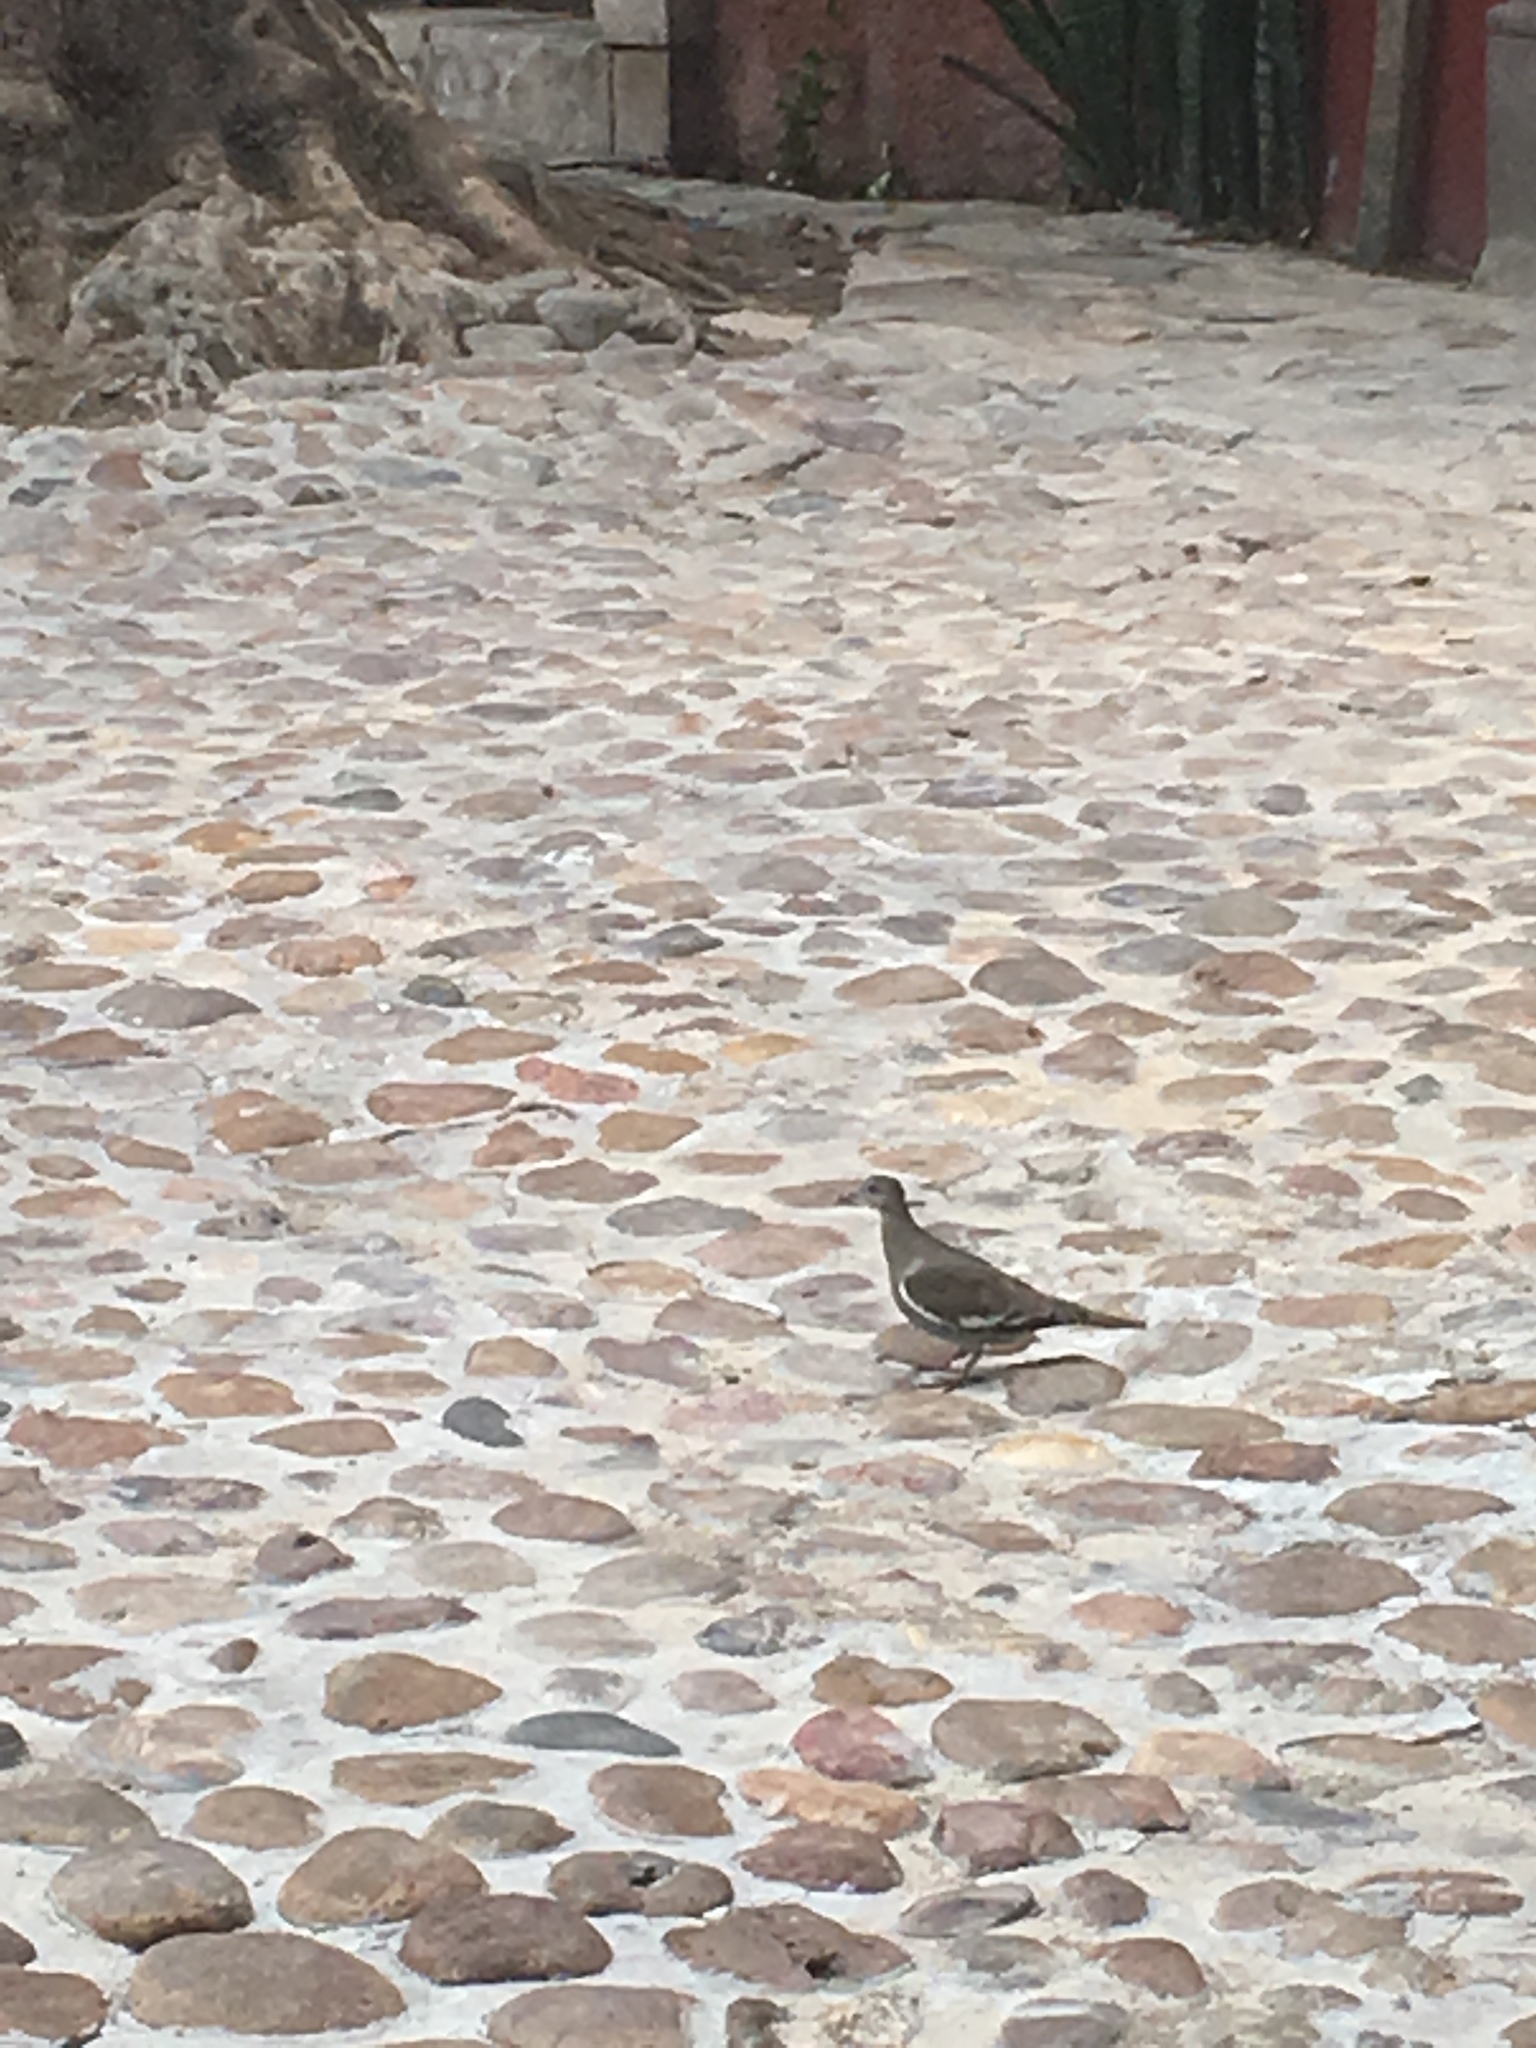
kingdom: Animalia
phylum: Chordata
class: Aves
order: Columbiformes
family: Columbidae
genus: Zenaida
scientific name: Zenaida asiatica
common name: White-winged dove
